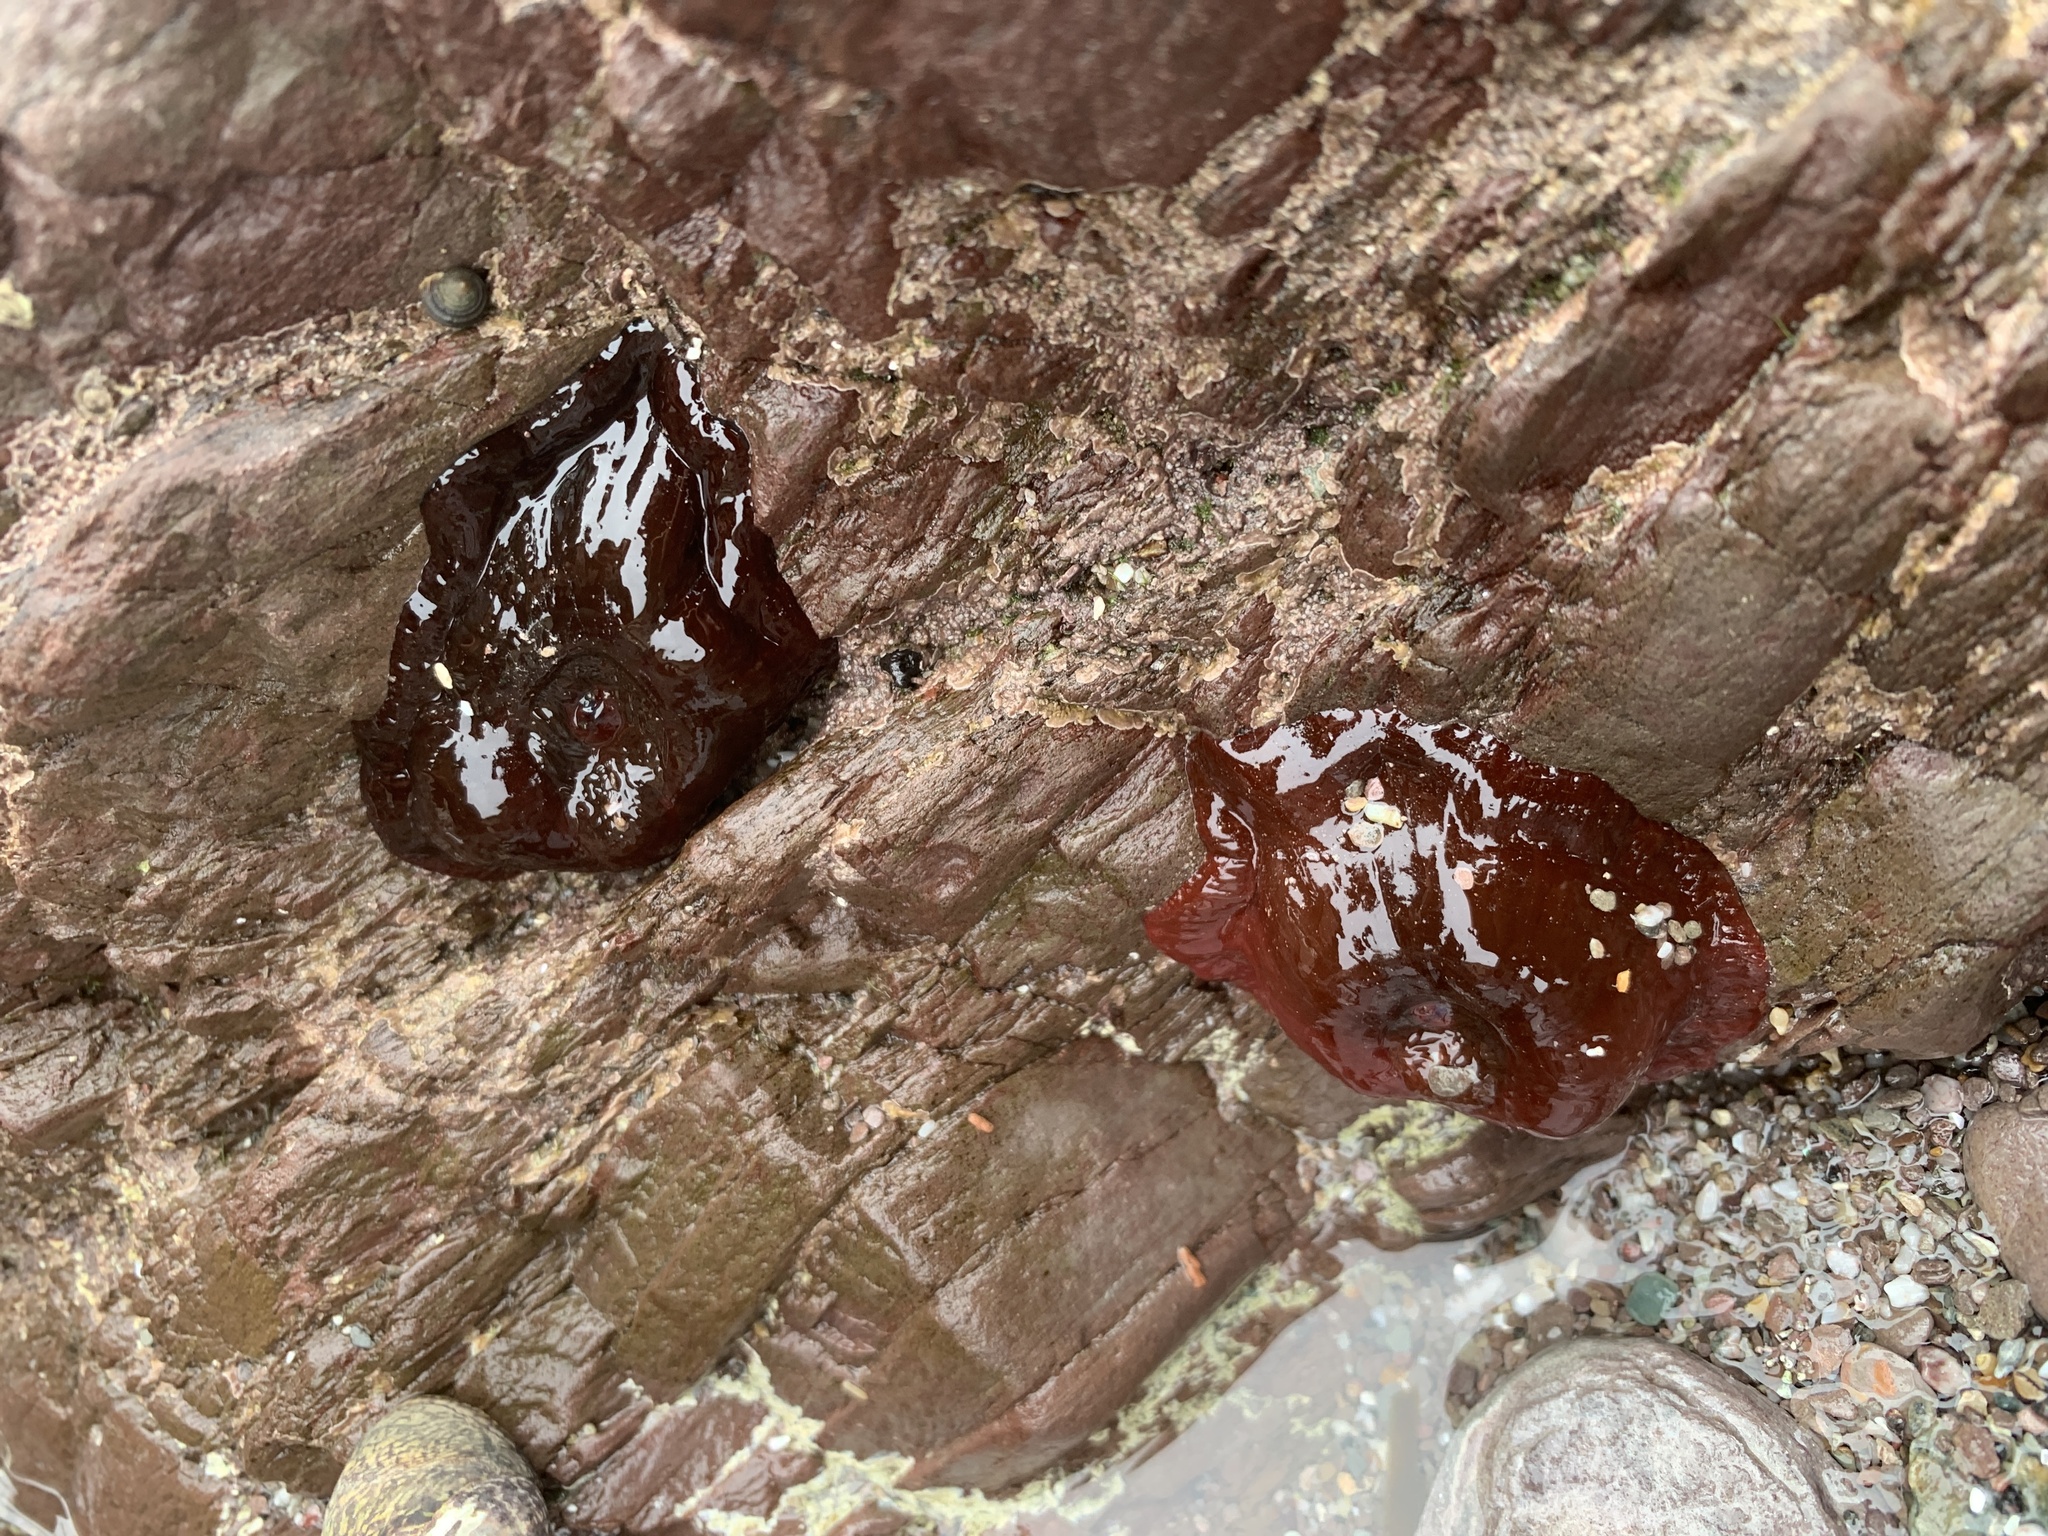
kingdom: Animalia
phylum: Cnidaria
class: Anthozoa
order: Actiniaria
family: Actiniidae
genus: Actinia
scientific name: Actinia equina
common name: Beadlet anemone
